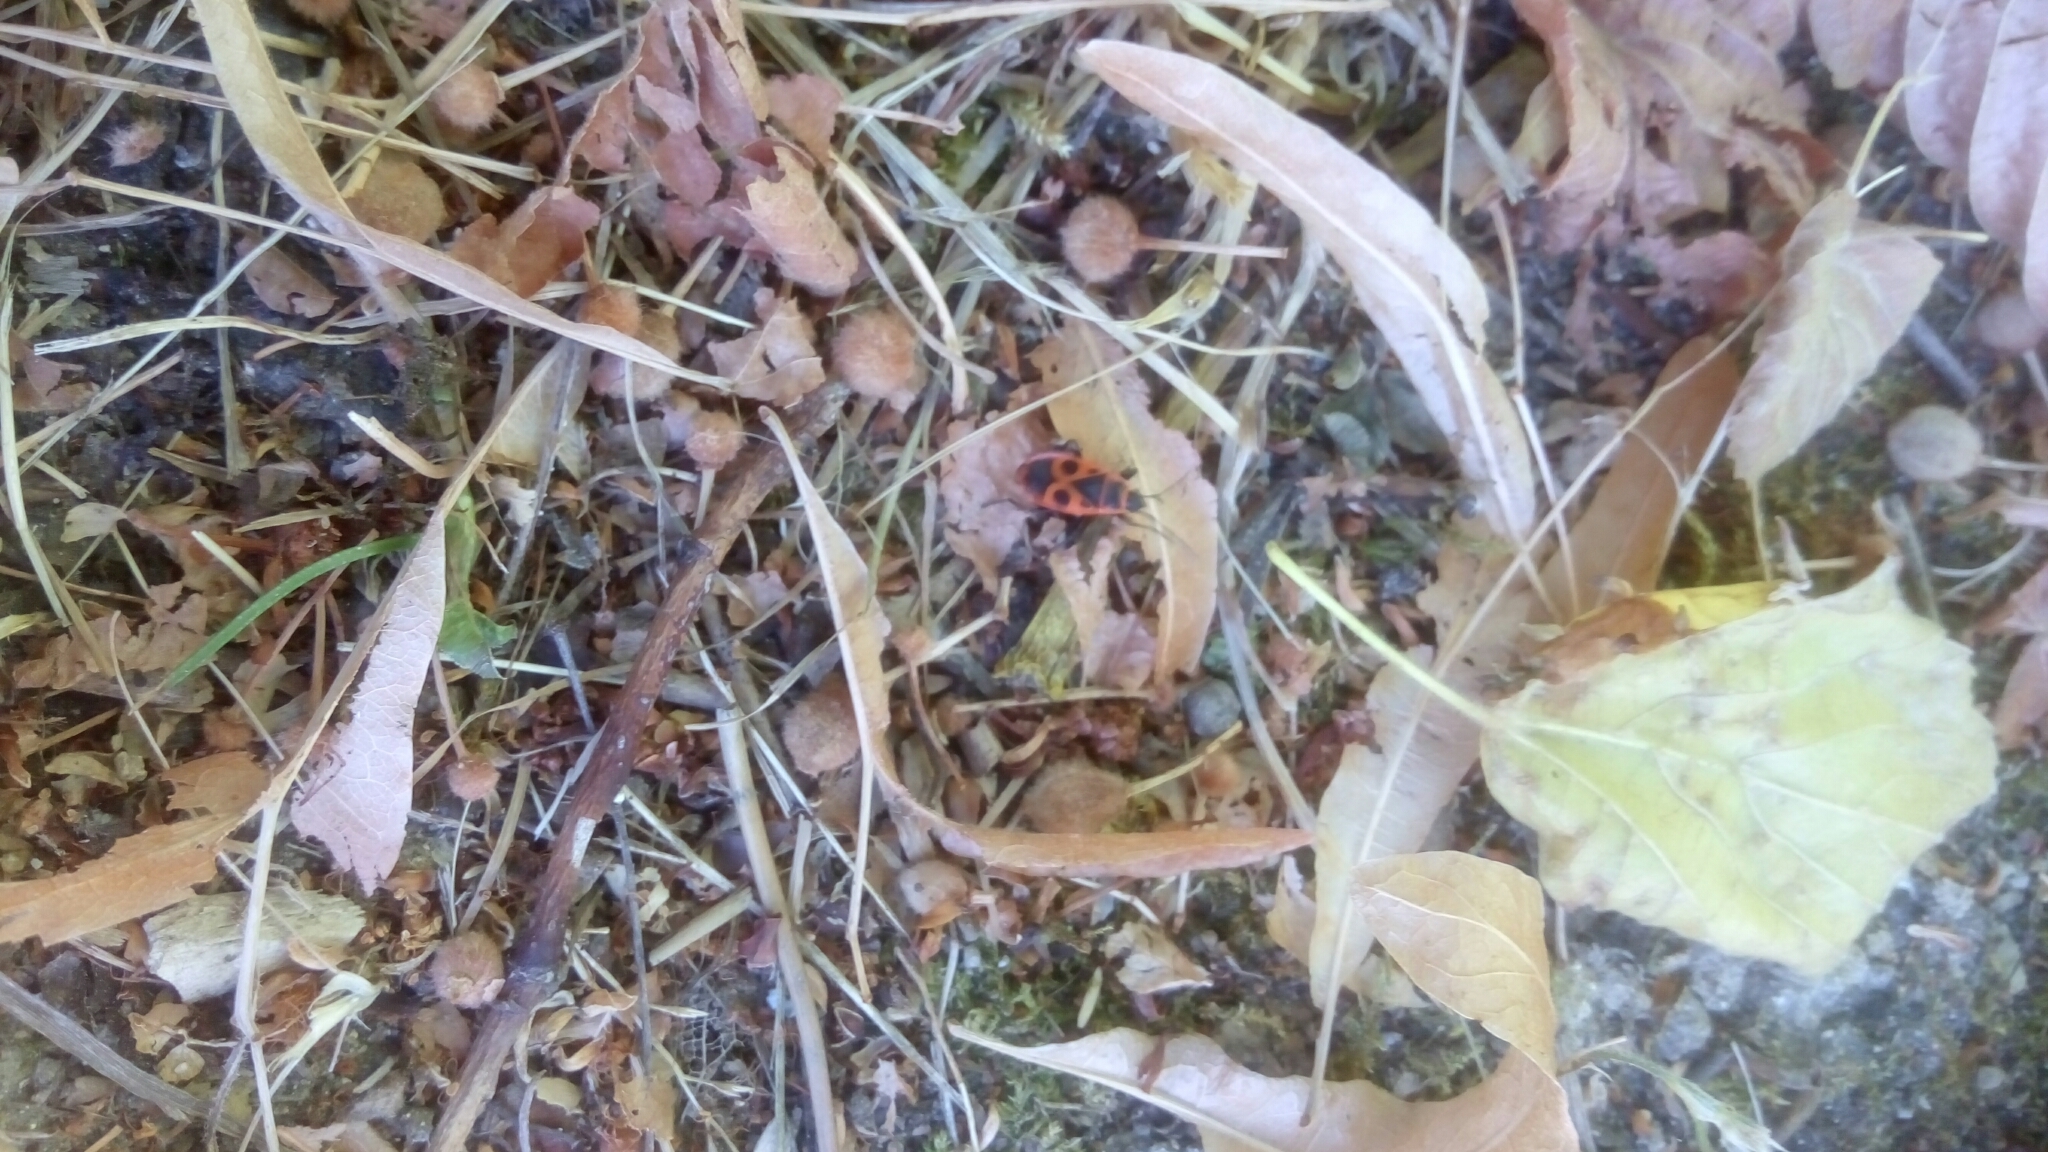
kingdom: Animalia
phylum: Arthropoda
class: Insecta
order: Hemiptera
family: Pyrrhocoridae
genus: Pyrrhocoris
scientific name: Pyrrhocoris apterus
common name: Firebug
